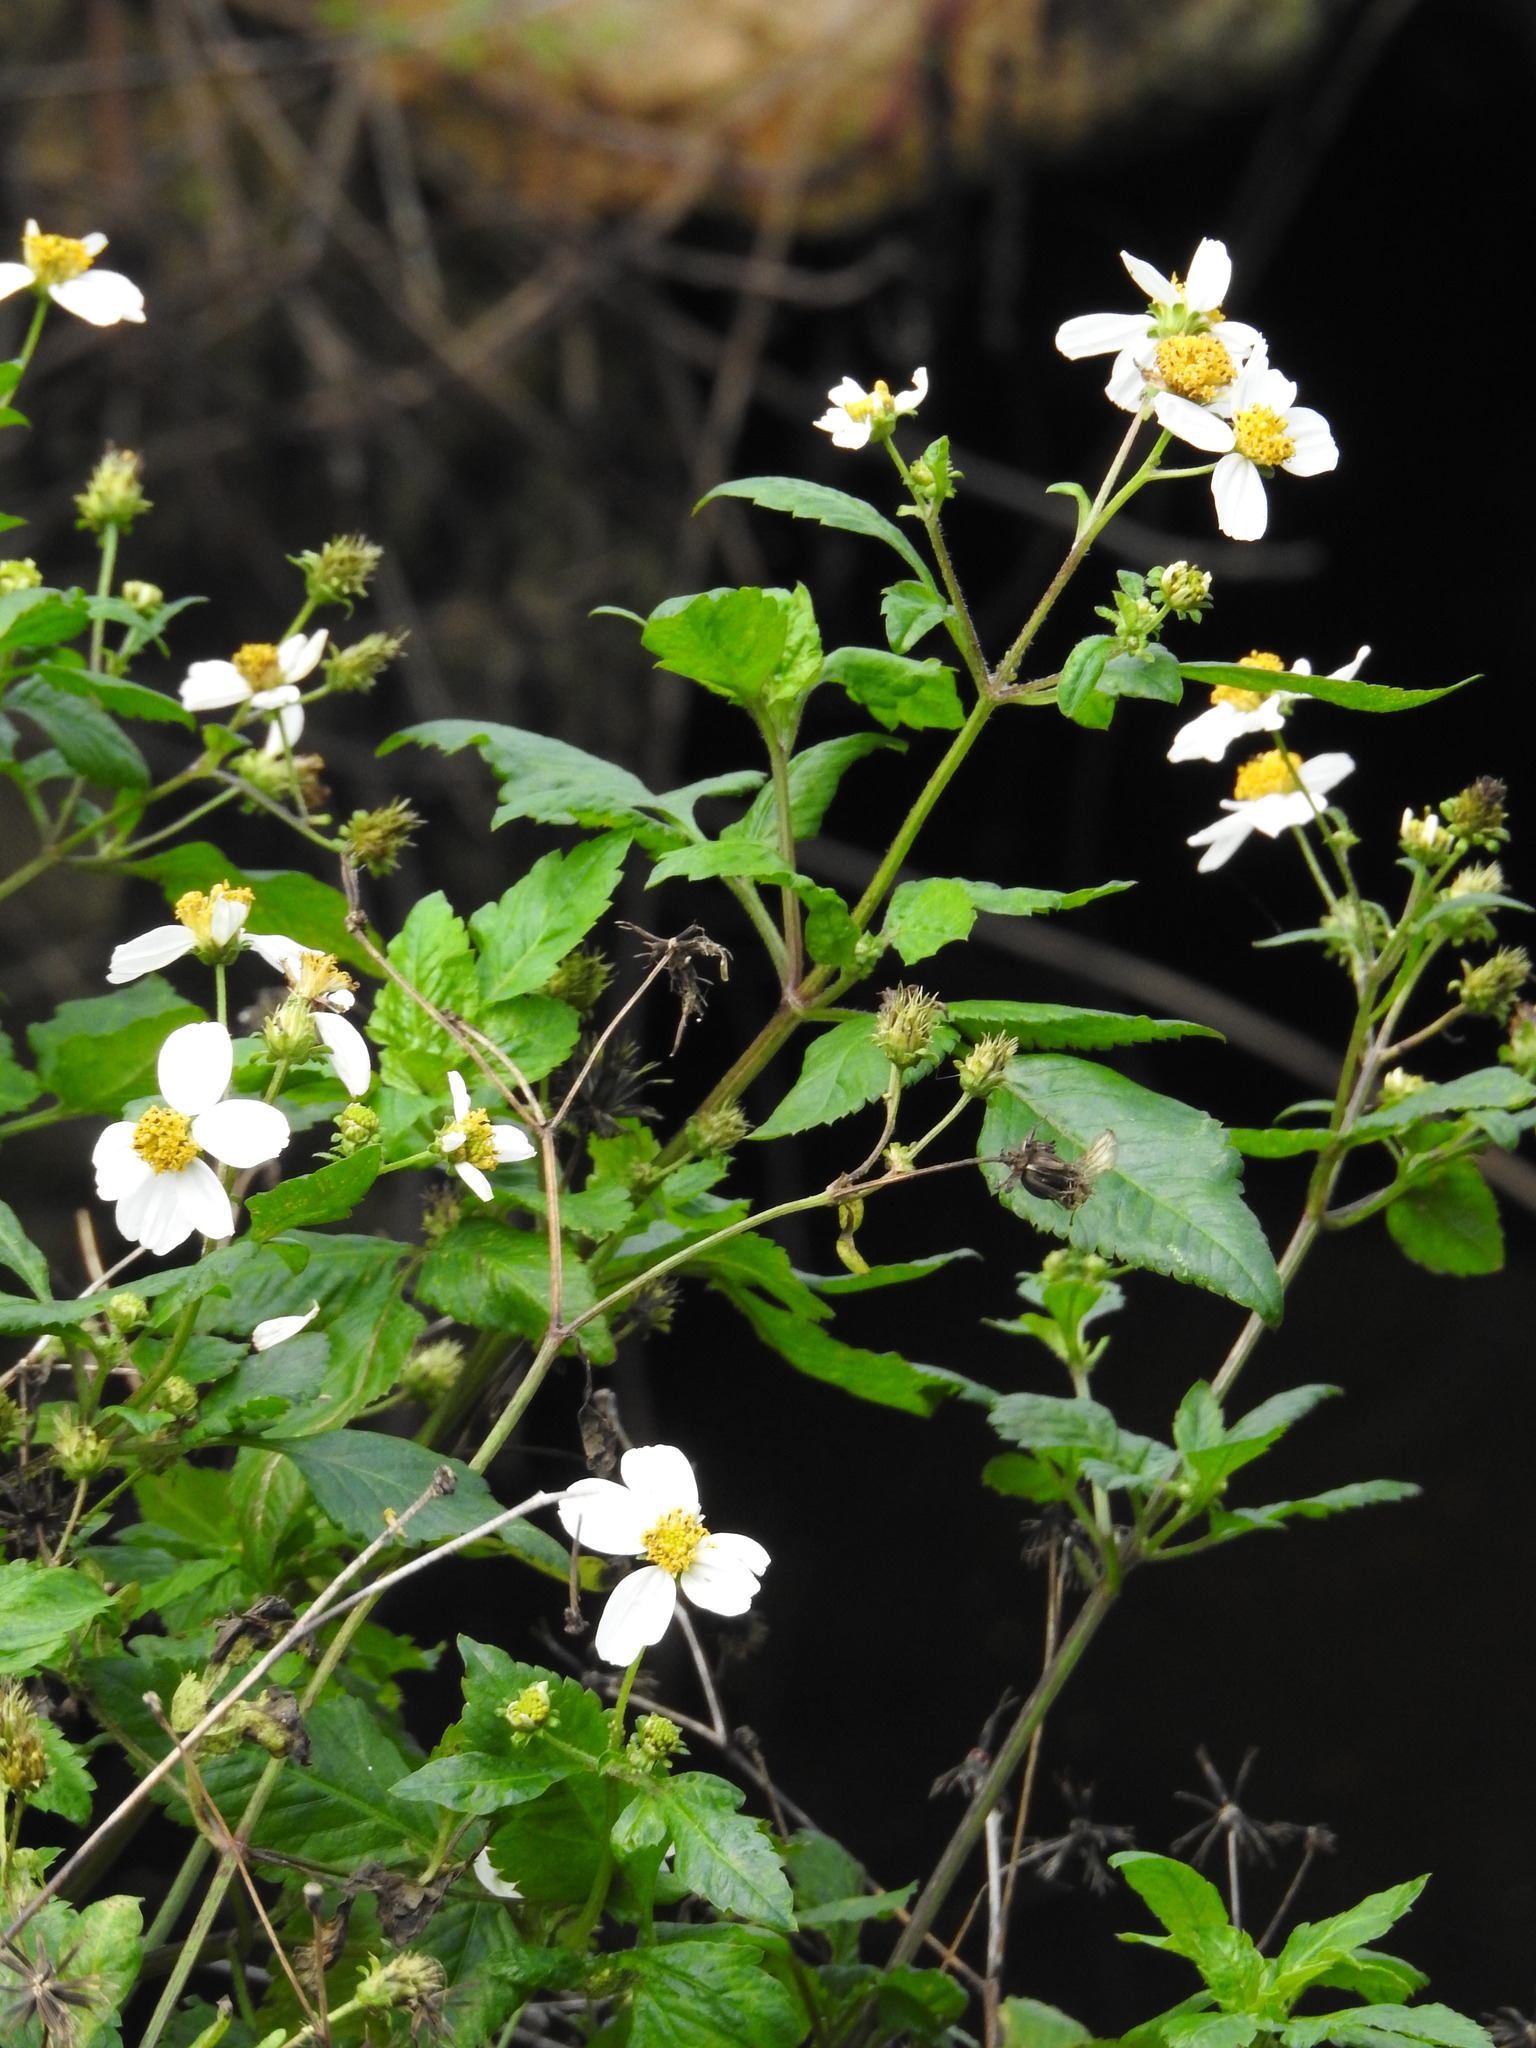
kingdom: Plantae
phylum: Tracheophyta
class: Magnoliopsida
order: Asterales
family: Asteraceae
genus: Bidens
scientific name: Bidens alba
